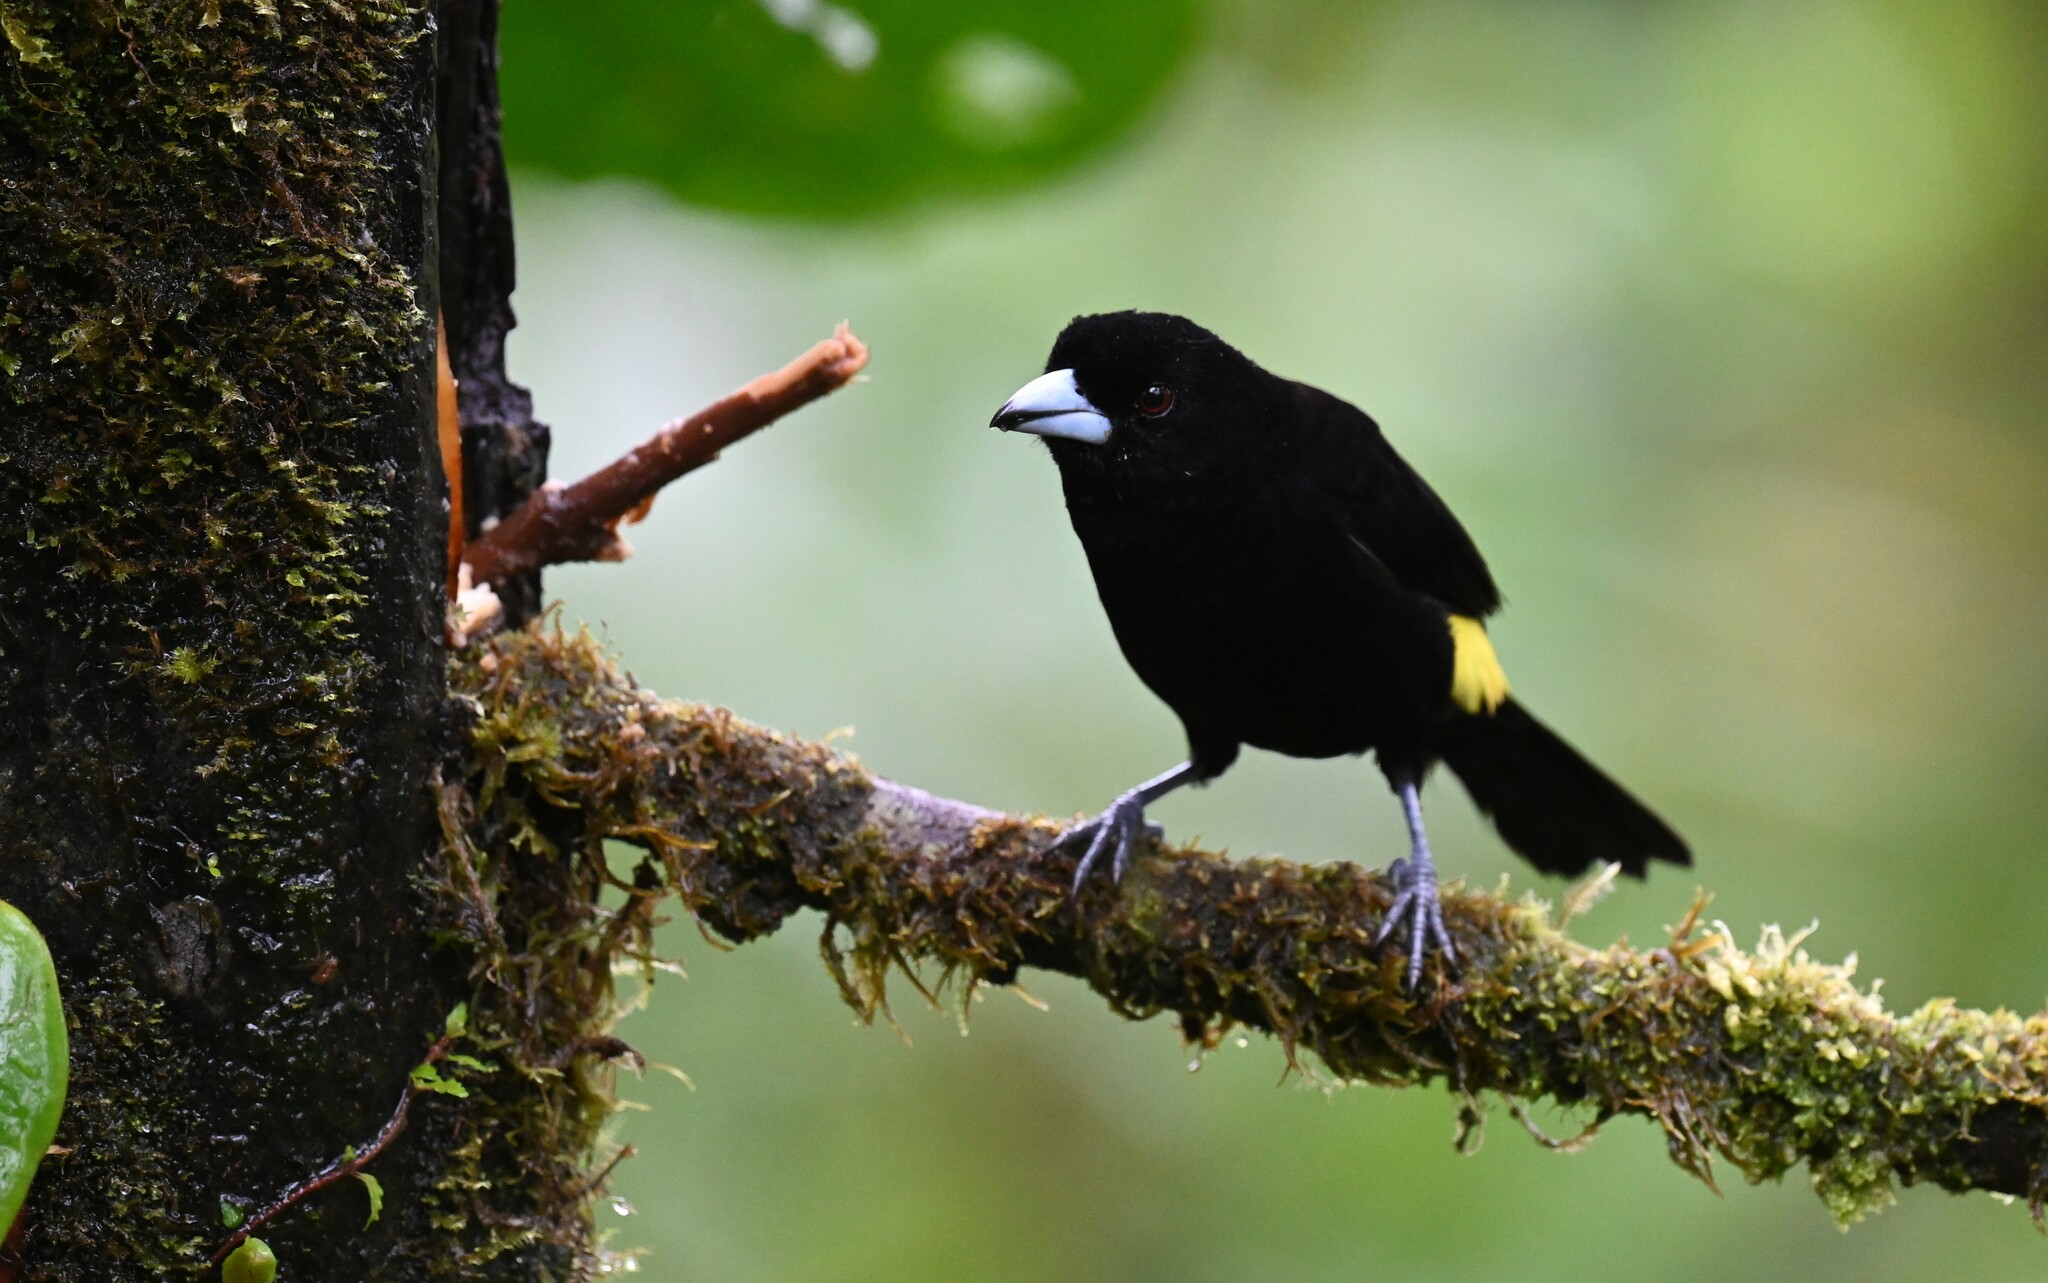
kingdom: Animalia
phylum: Chordata
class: Aves
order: Passeriformes
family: Thraupidae
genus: Ramphocelus
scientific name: Ramphocelus flammigerus
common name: Flame-rumped tanager
